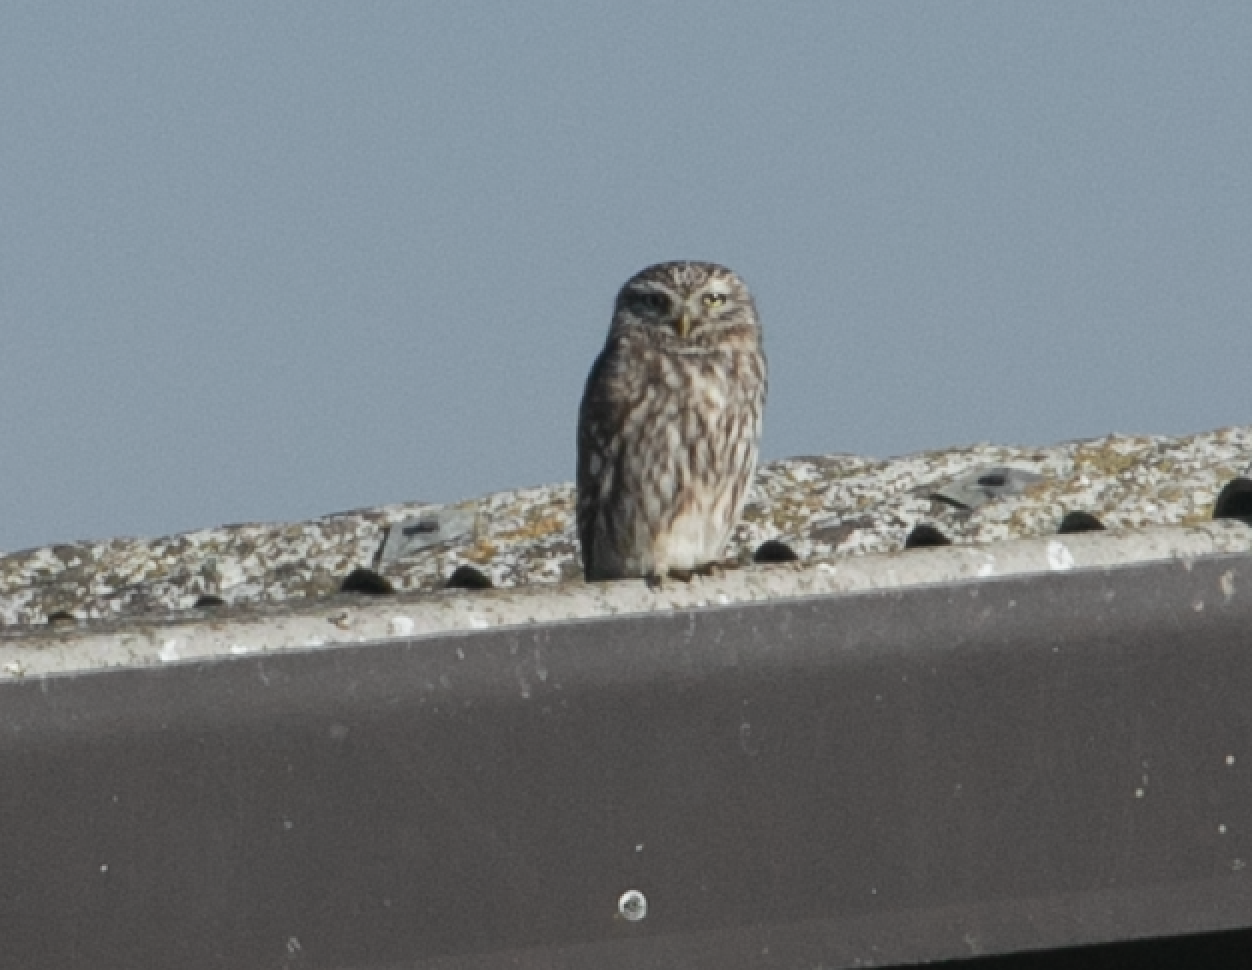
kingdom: Animalia
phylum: Chordata
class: Aves
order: Strigiformes
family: Strigidae
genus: Athene
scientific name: Athene noctua
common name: Little owl
